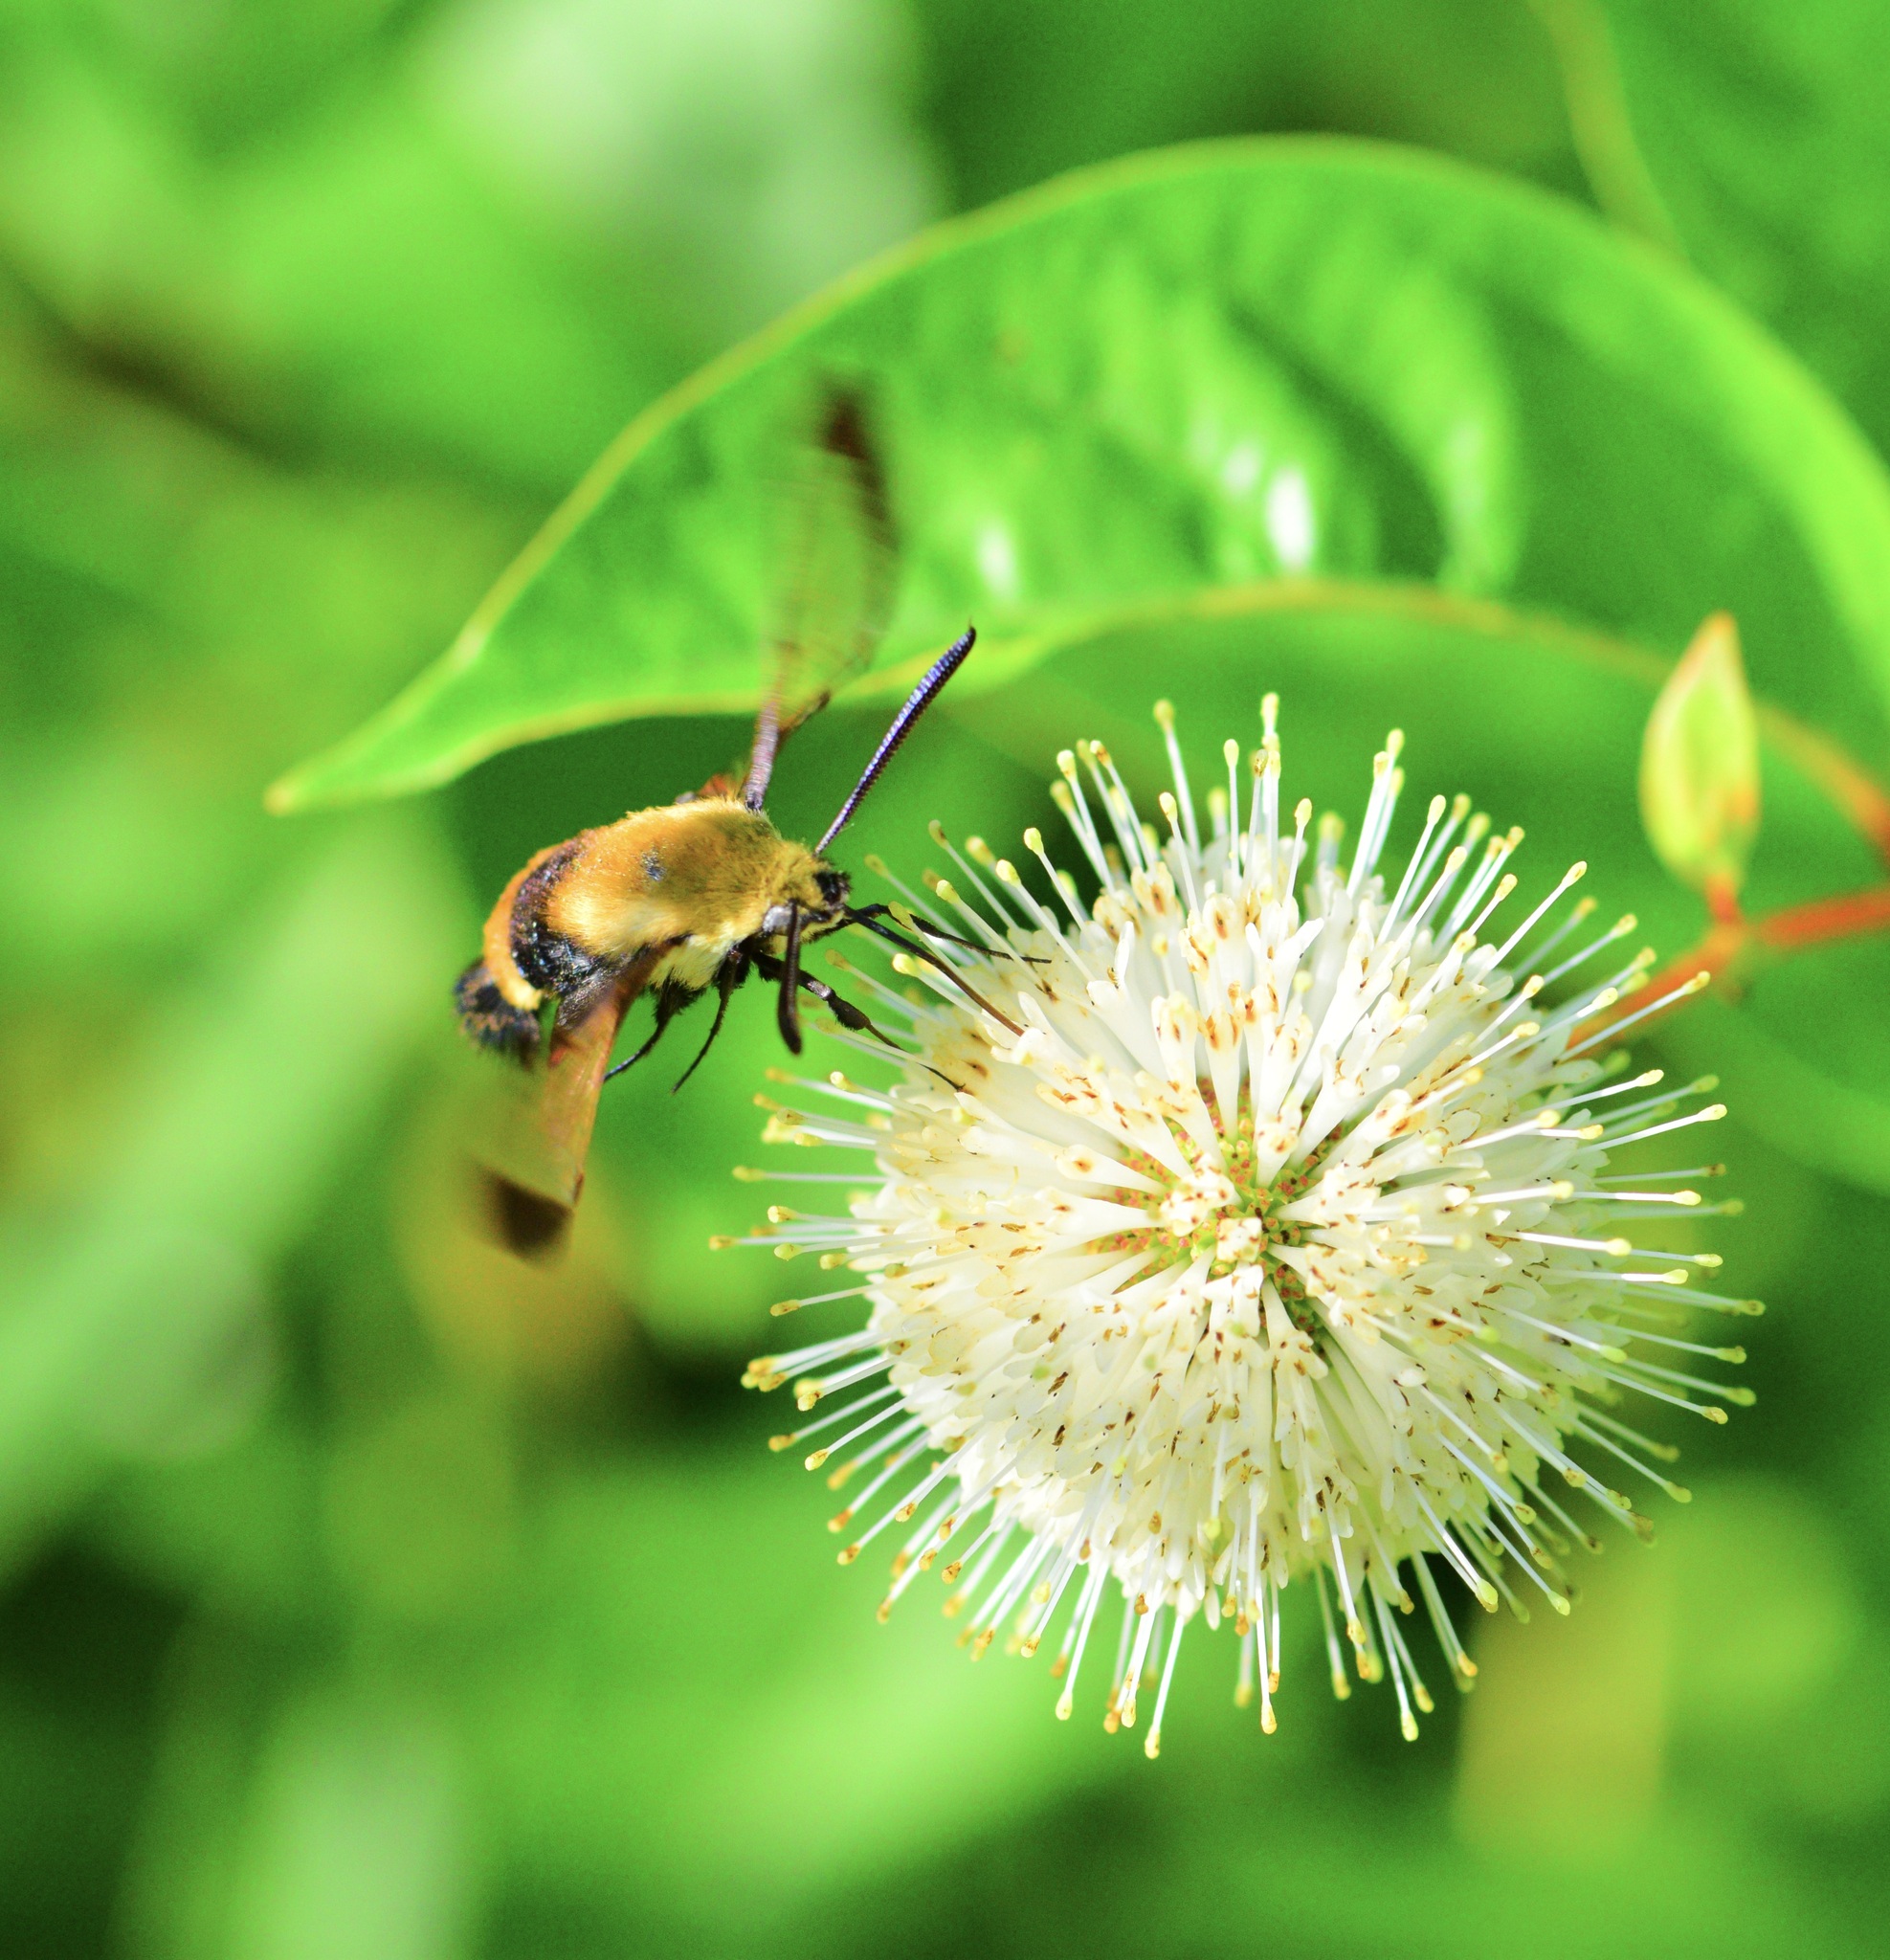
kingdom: Animalia
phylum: Arthropoda
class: Insecta
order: Lepidoptera
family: Sphingidae
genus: Hemaris
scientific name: Hemaris diffinis
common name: Bumblebee moth
